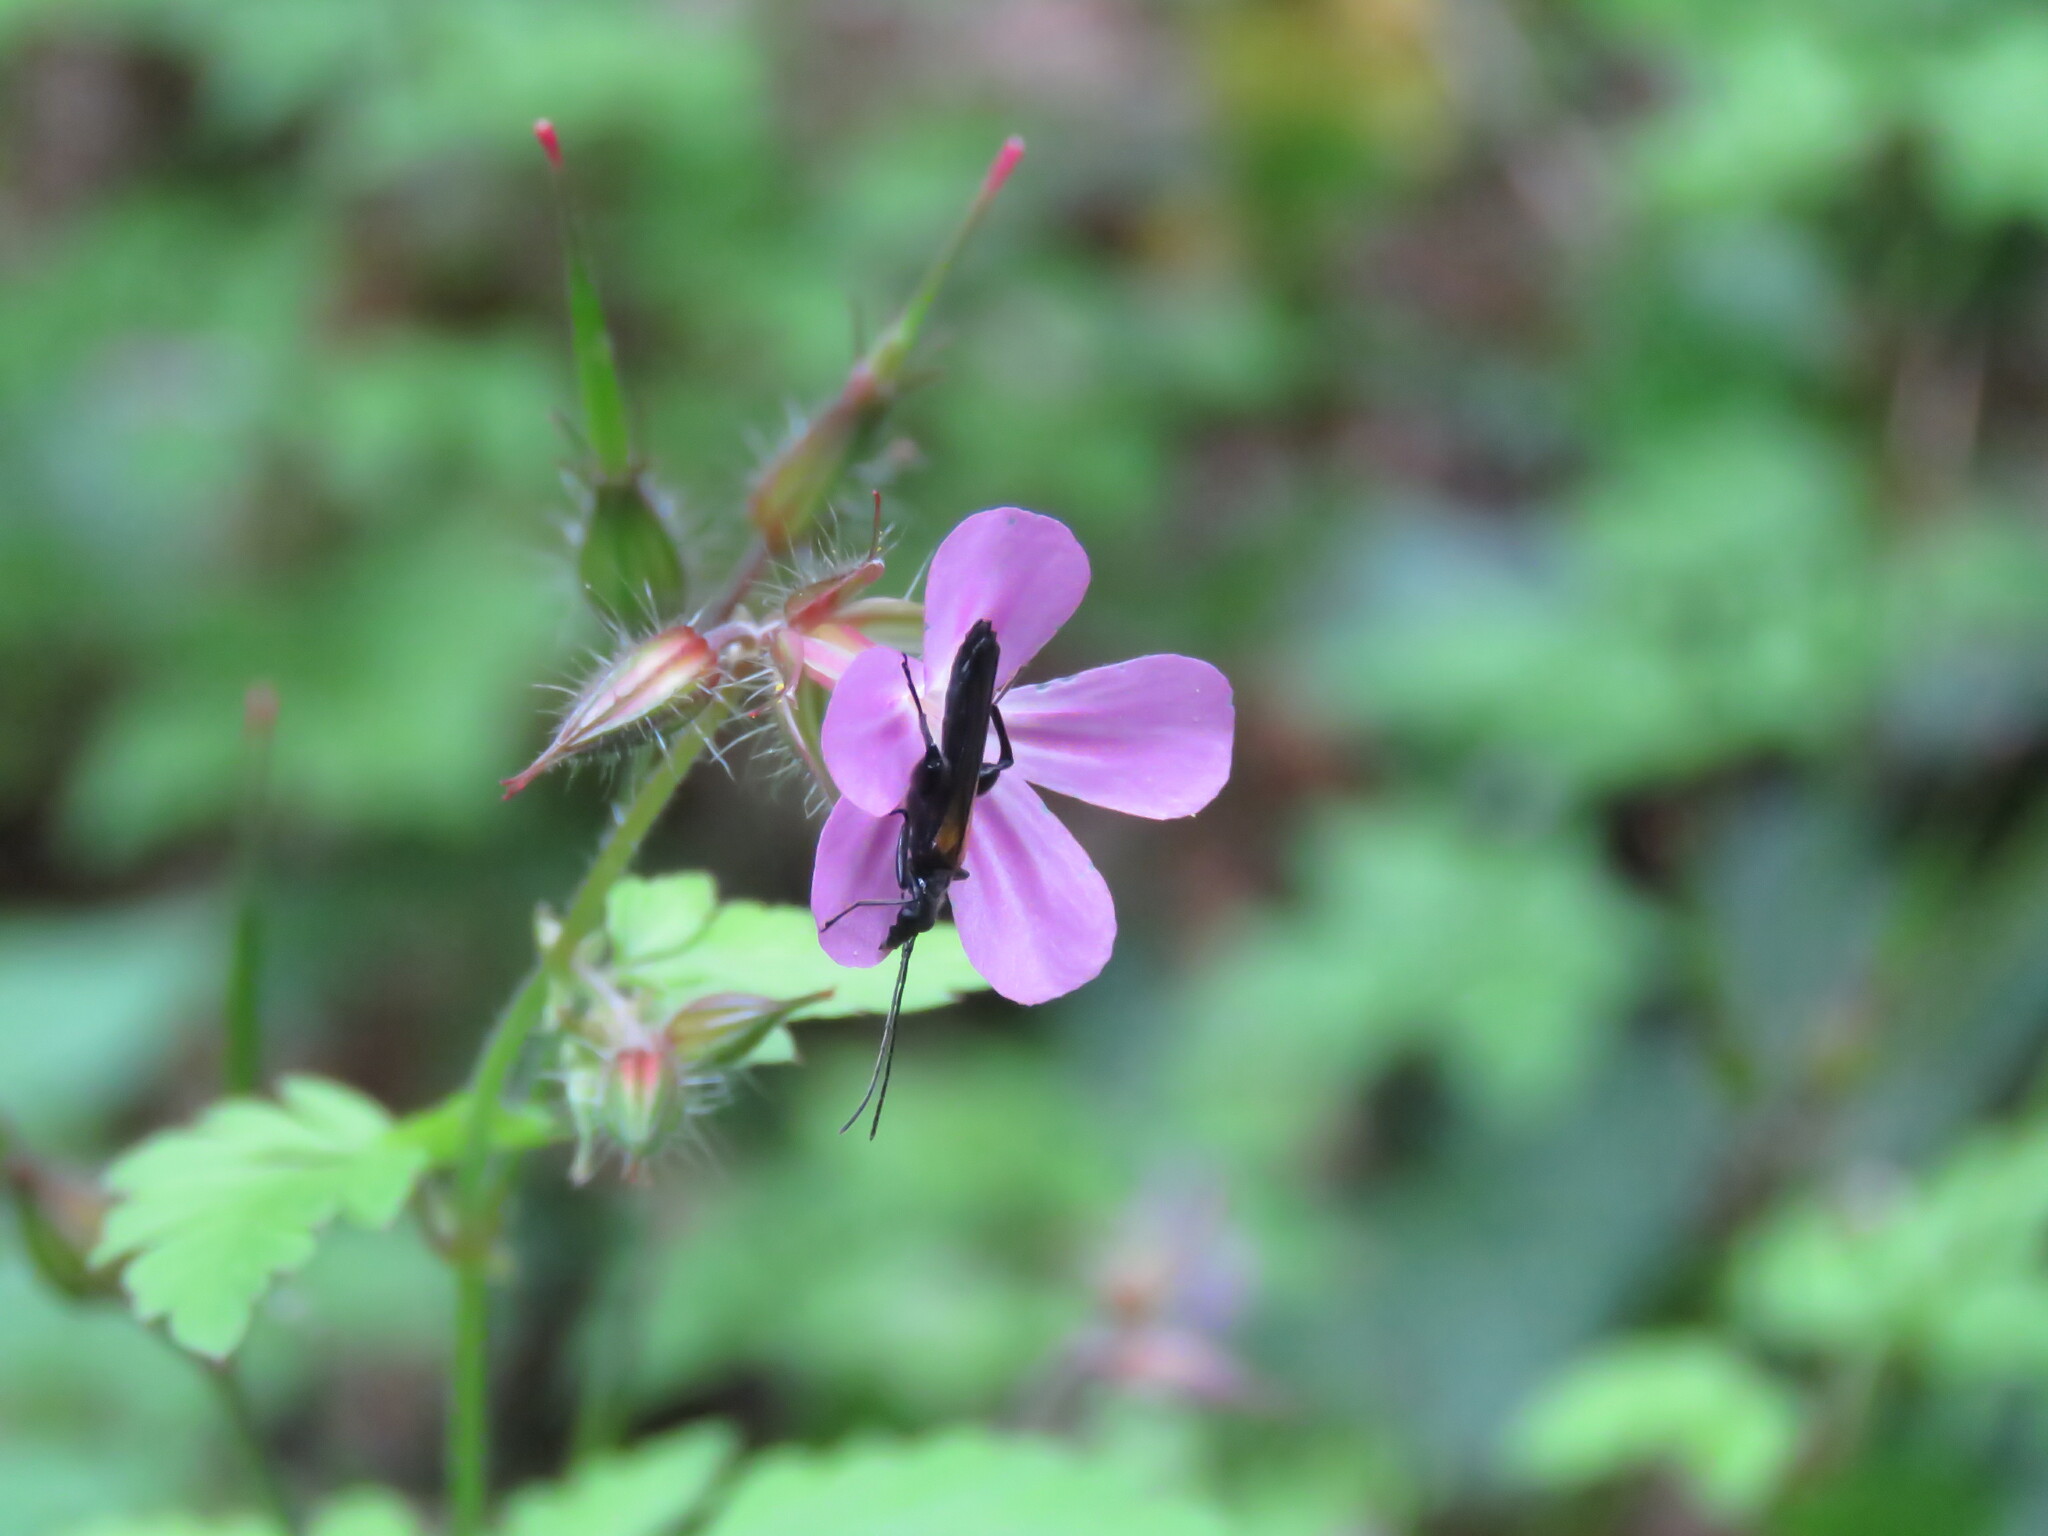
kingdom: Animalia
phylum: Arthropoda
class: Insecta
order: Coleoptera
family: Oedemeridae
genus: Oedemera
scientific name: Oedemera pthysica
